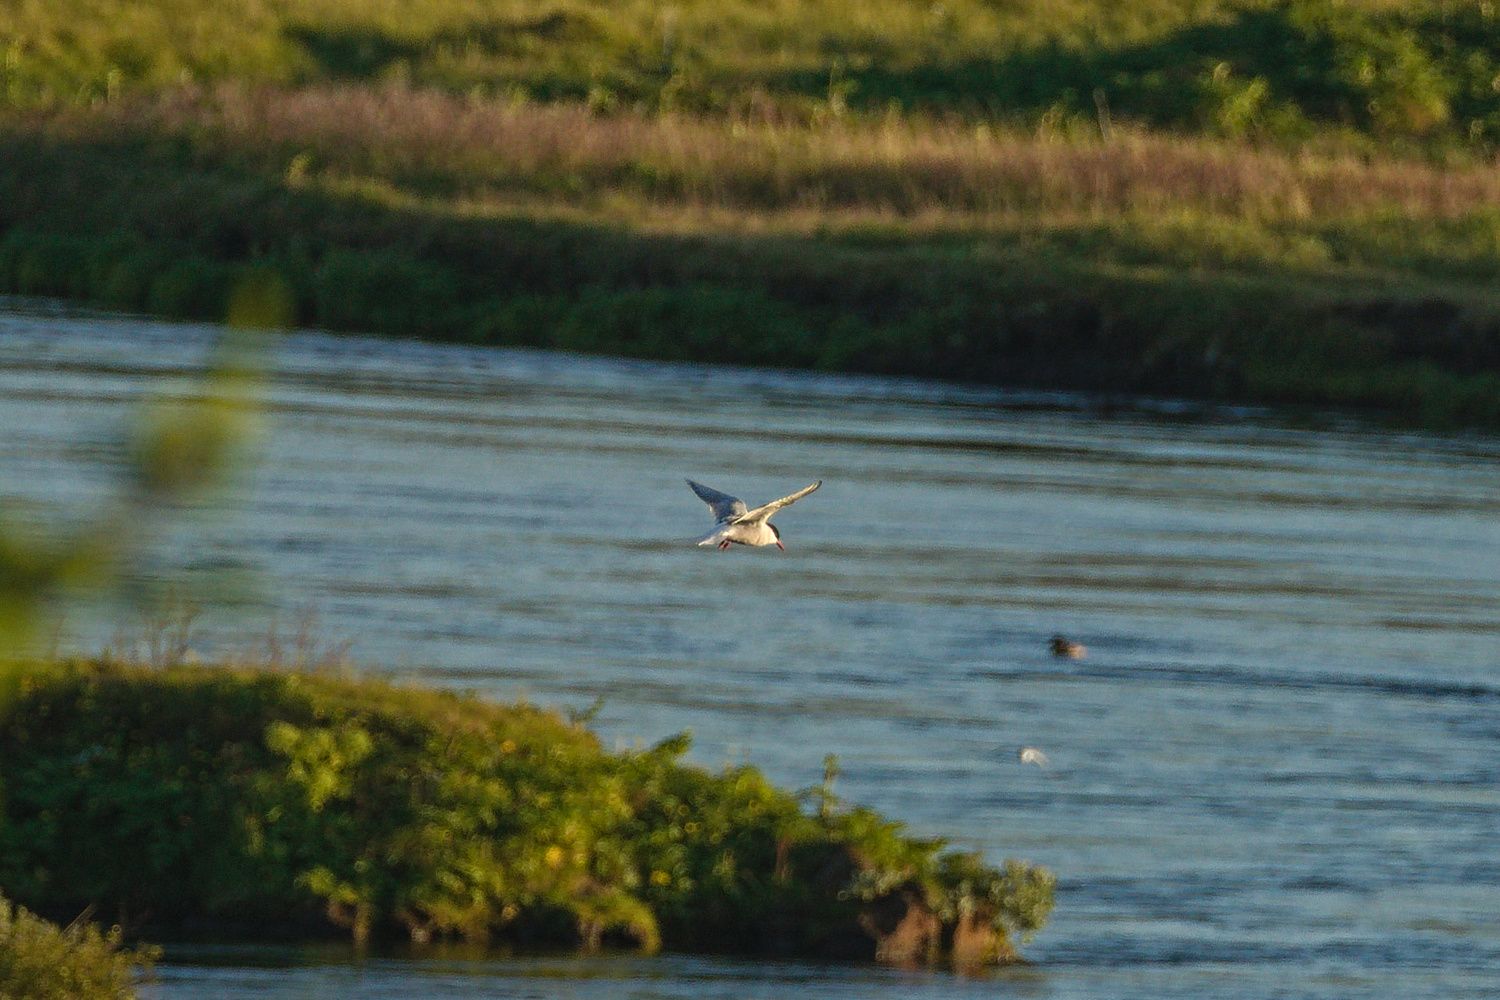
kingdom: Animalia
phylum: Chordata
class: Aves
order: Charadriiformes
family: Laridae
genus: Sterna
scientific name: Sterna paradisaea
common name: Arctic tern
